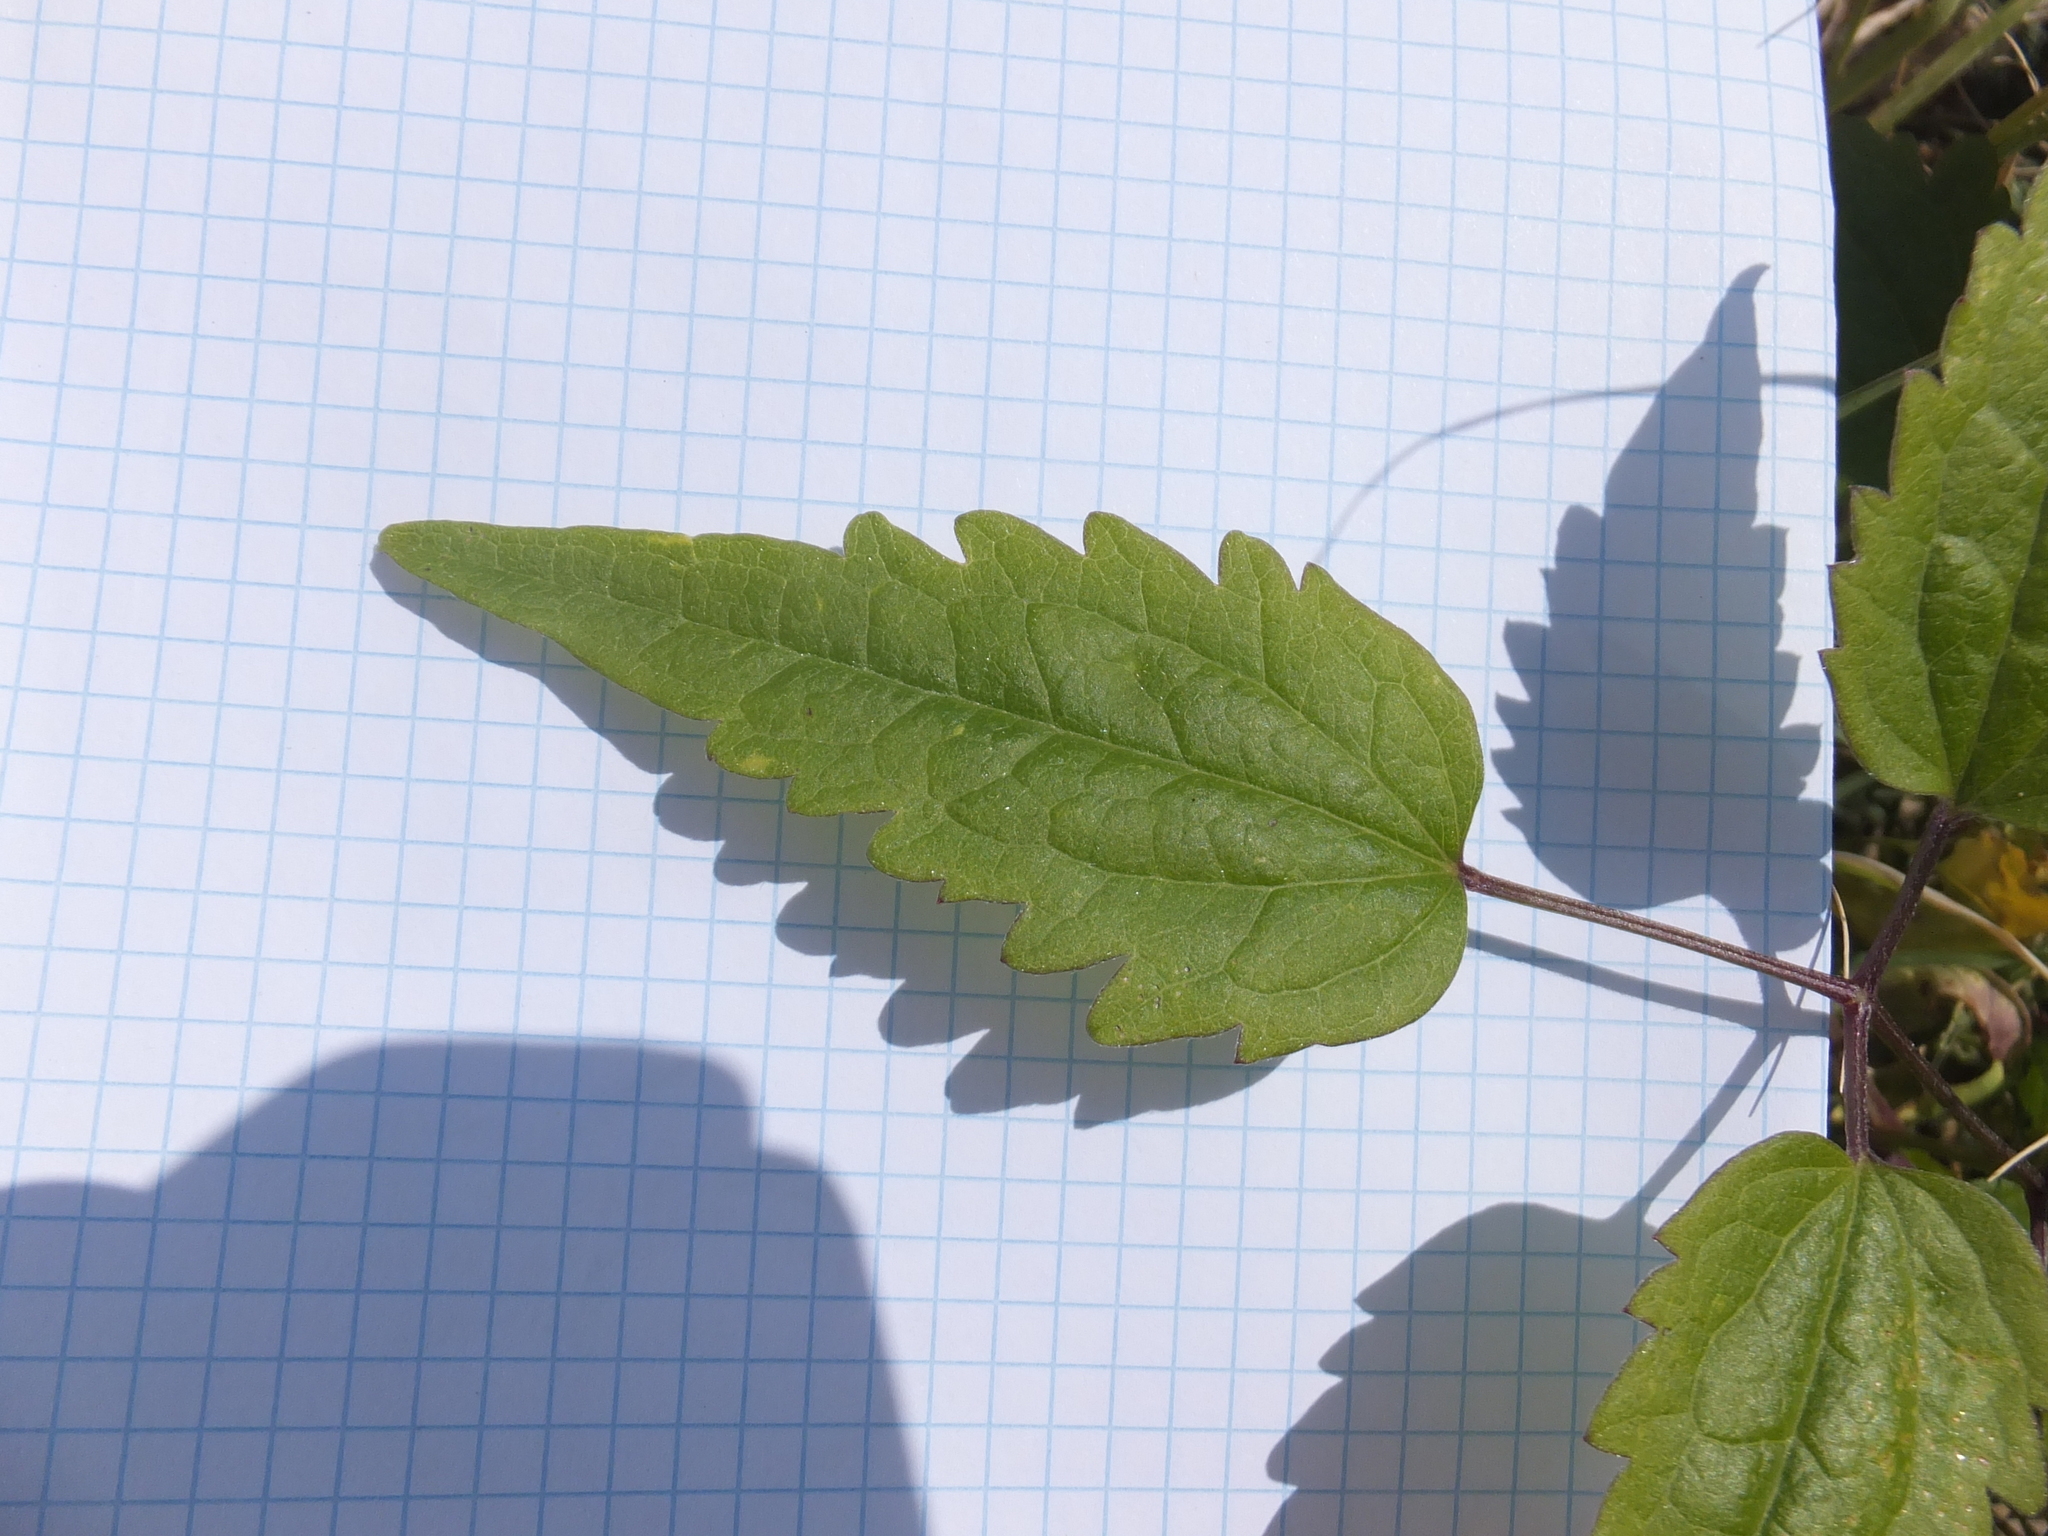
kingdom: Plantae
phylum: Tracheophyta
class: Magnoliopsida
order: Ranunculales
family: Ranunculaceae
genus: Clematis
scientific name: Clematis vitalba
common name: Evergreen clematis
